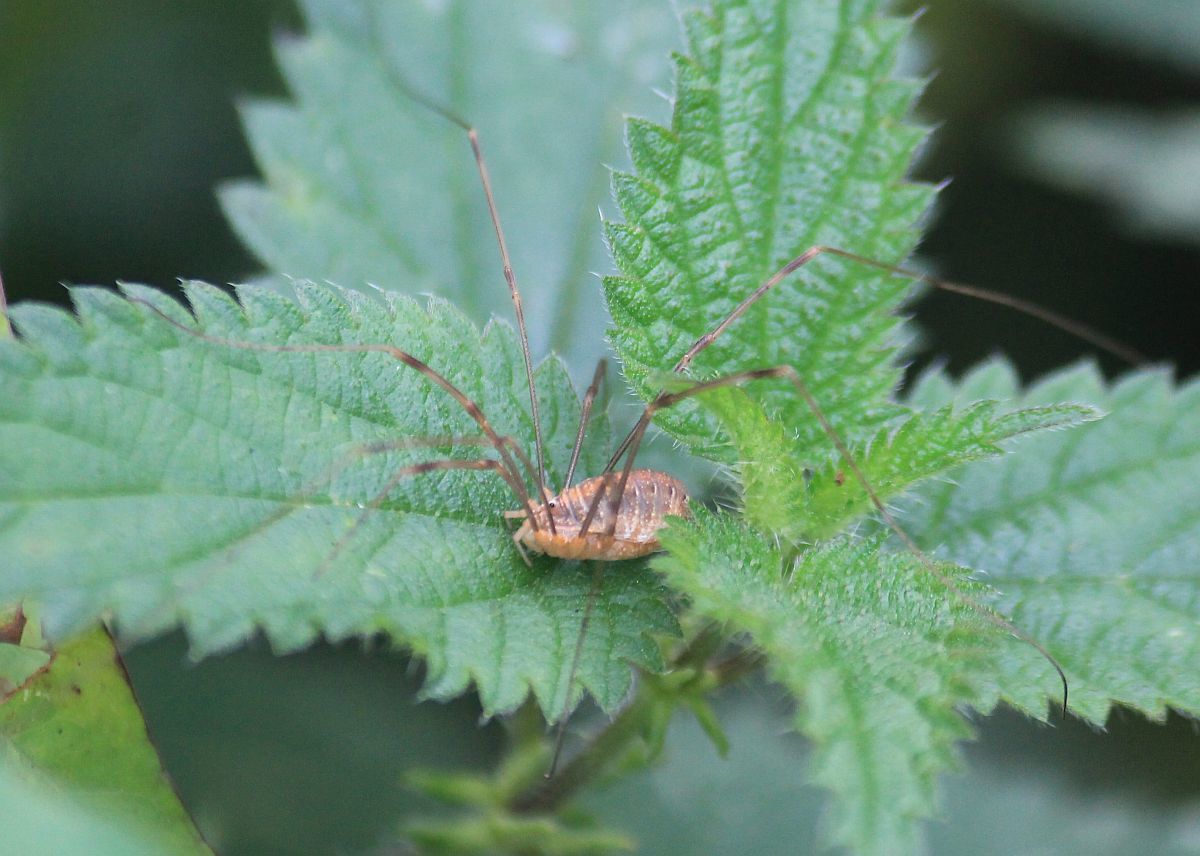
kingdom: Animalia
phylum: Arthropoda
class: Arachnida
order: Opiliones
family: Phalangiidae
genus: Opilio
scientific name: Opilio canestrinii
